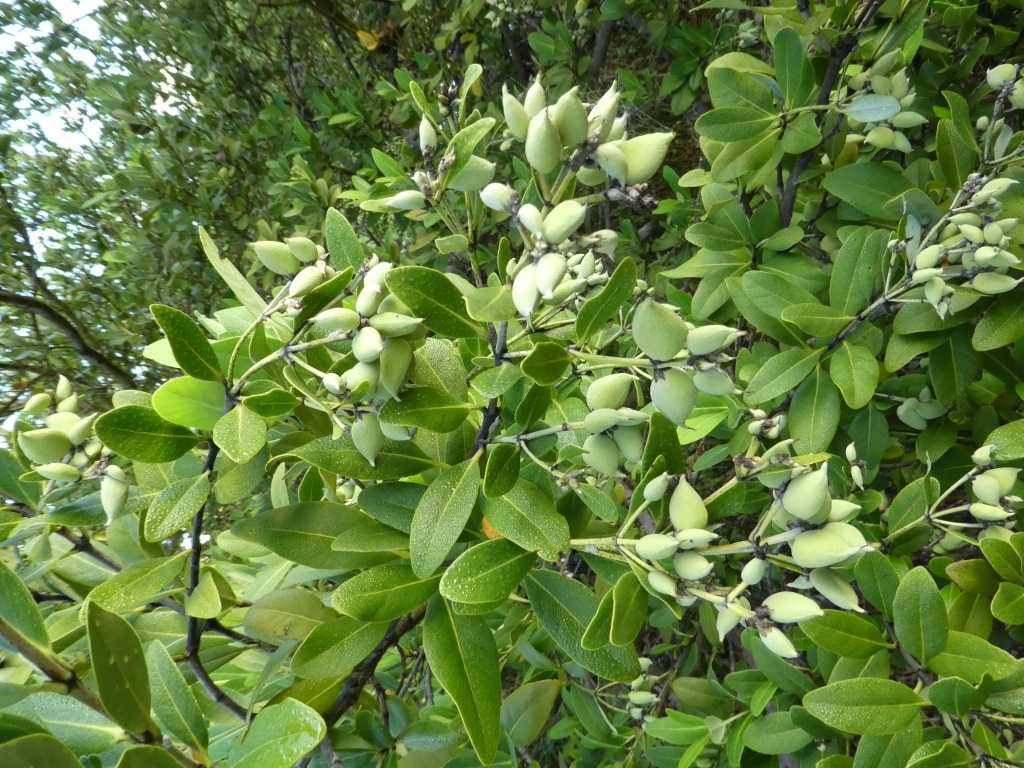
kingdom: Plantae
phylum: Tracheophyta
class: Magnoliopsida
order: Lamiales
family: Acanthaceae
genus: Avicennia
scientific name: Avicennia germinans
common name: Black mangrove
